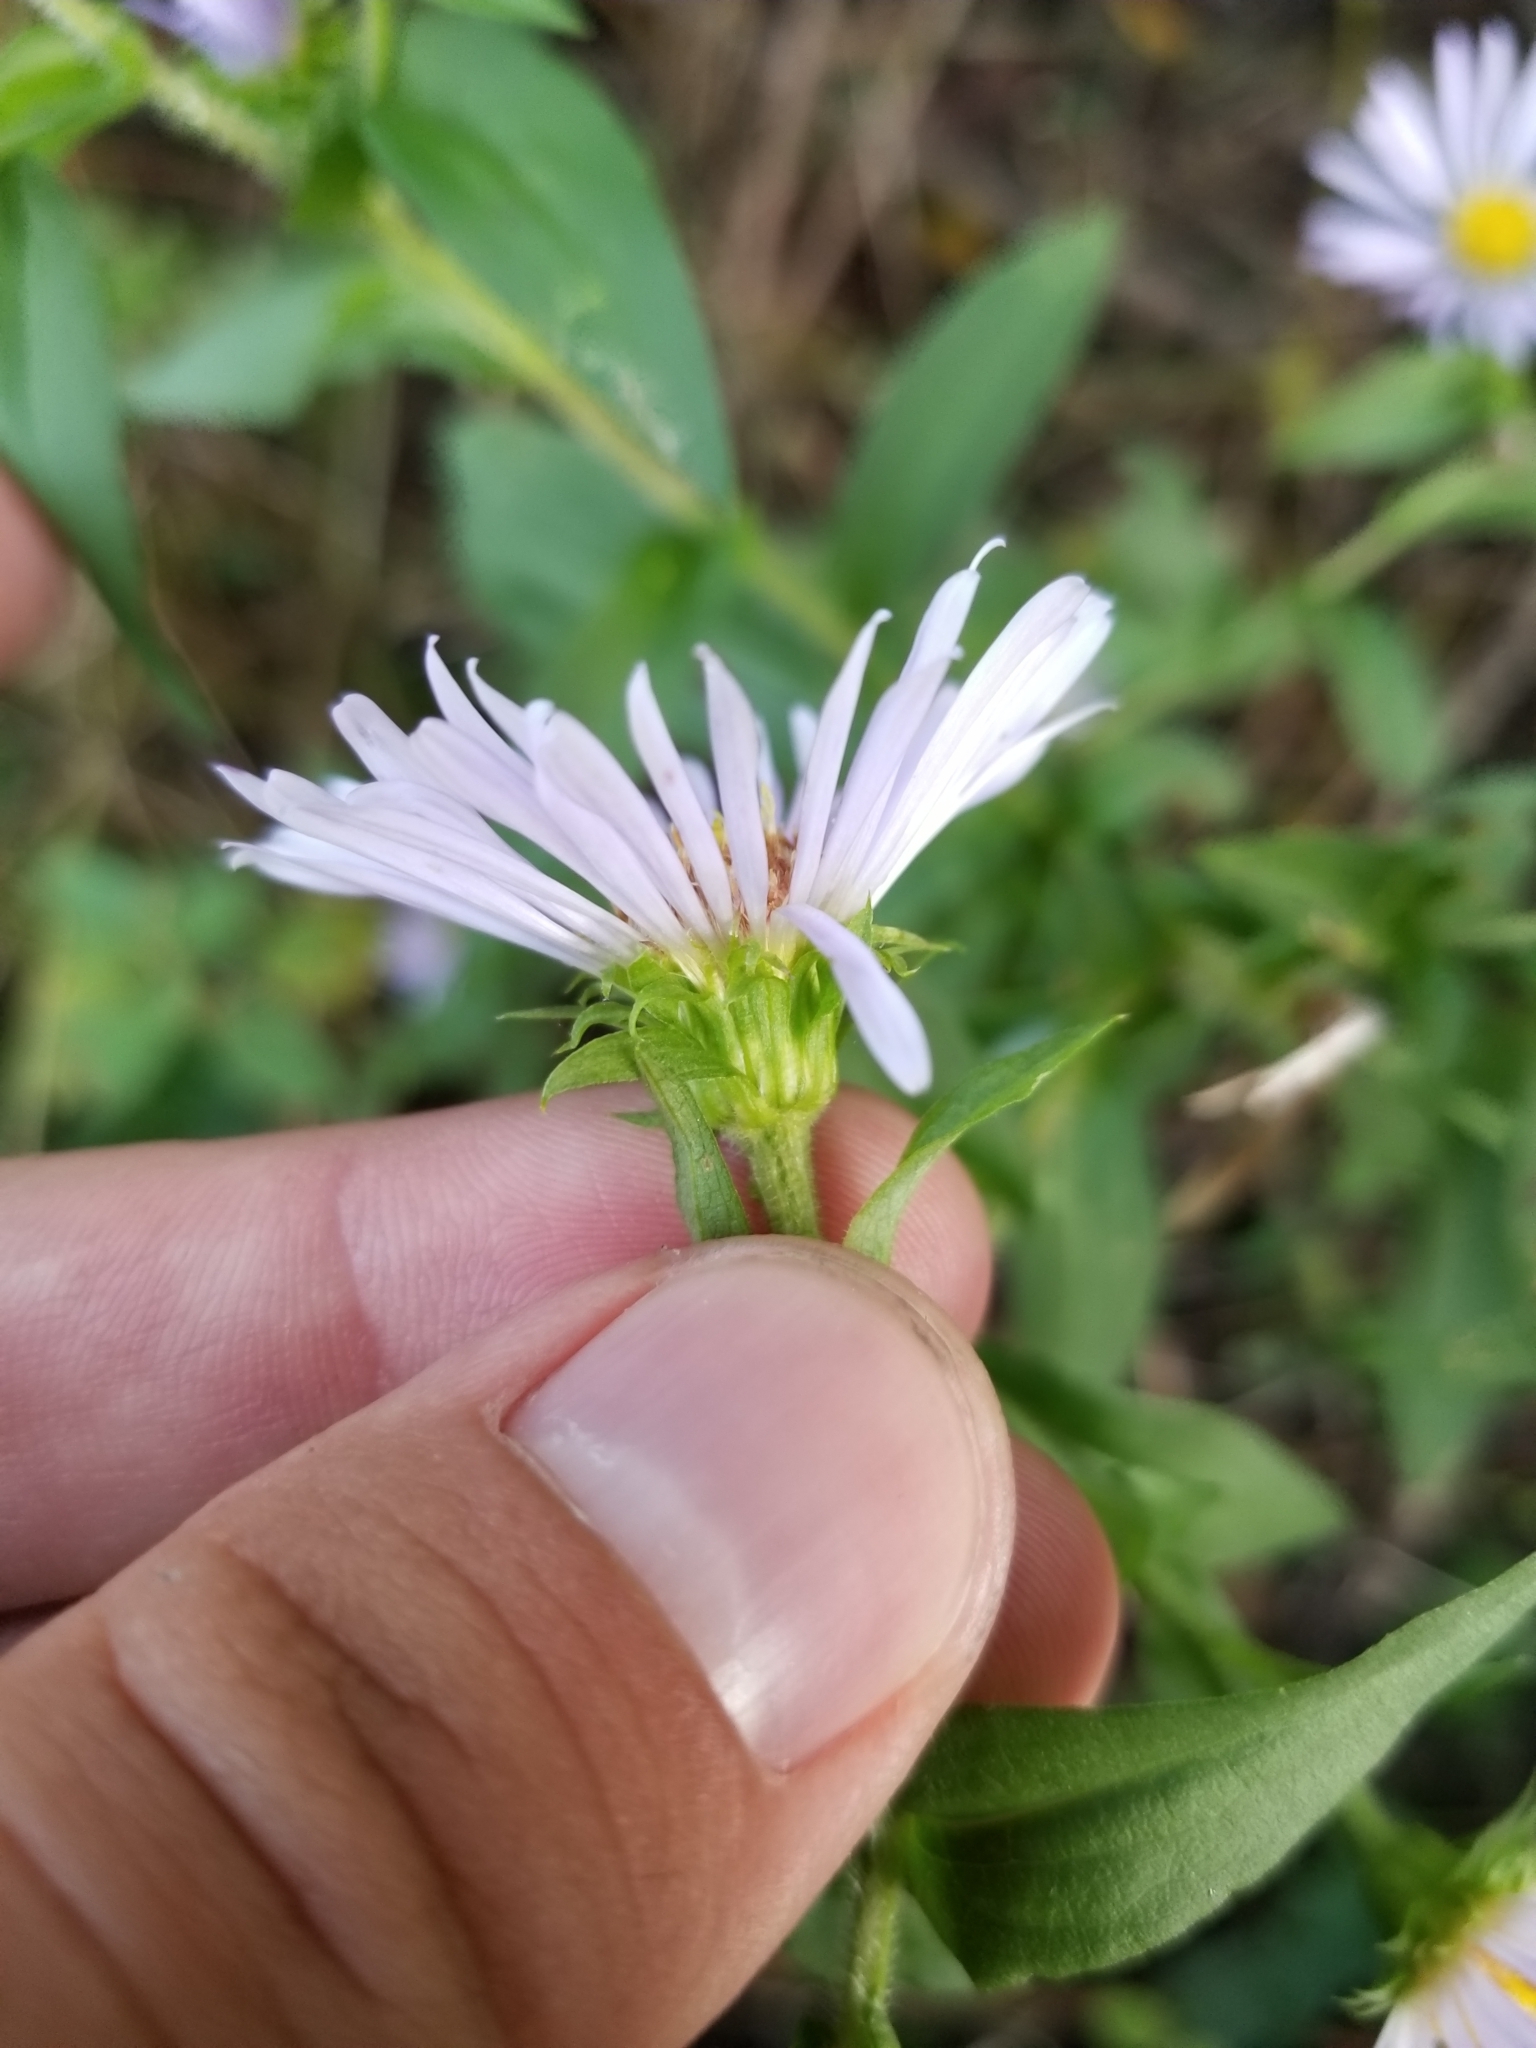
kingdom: Plantae
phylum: Tracheophyta
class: Magnoliopsida
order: Asterales
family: Asteraceae
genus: Symphyotrichum
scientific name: Symphyotrichum puniceum
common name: Bog aster
